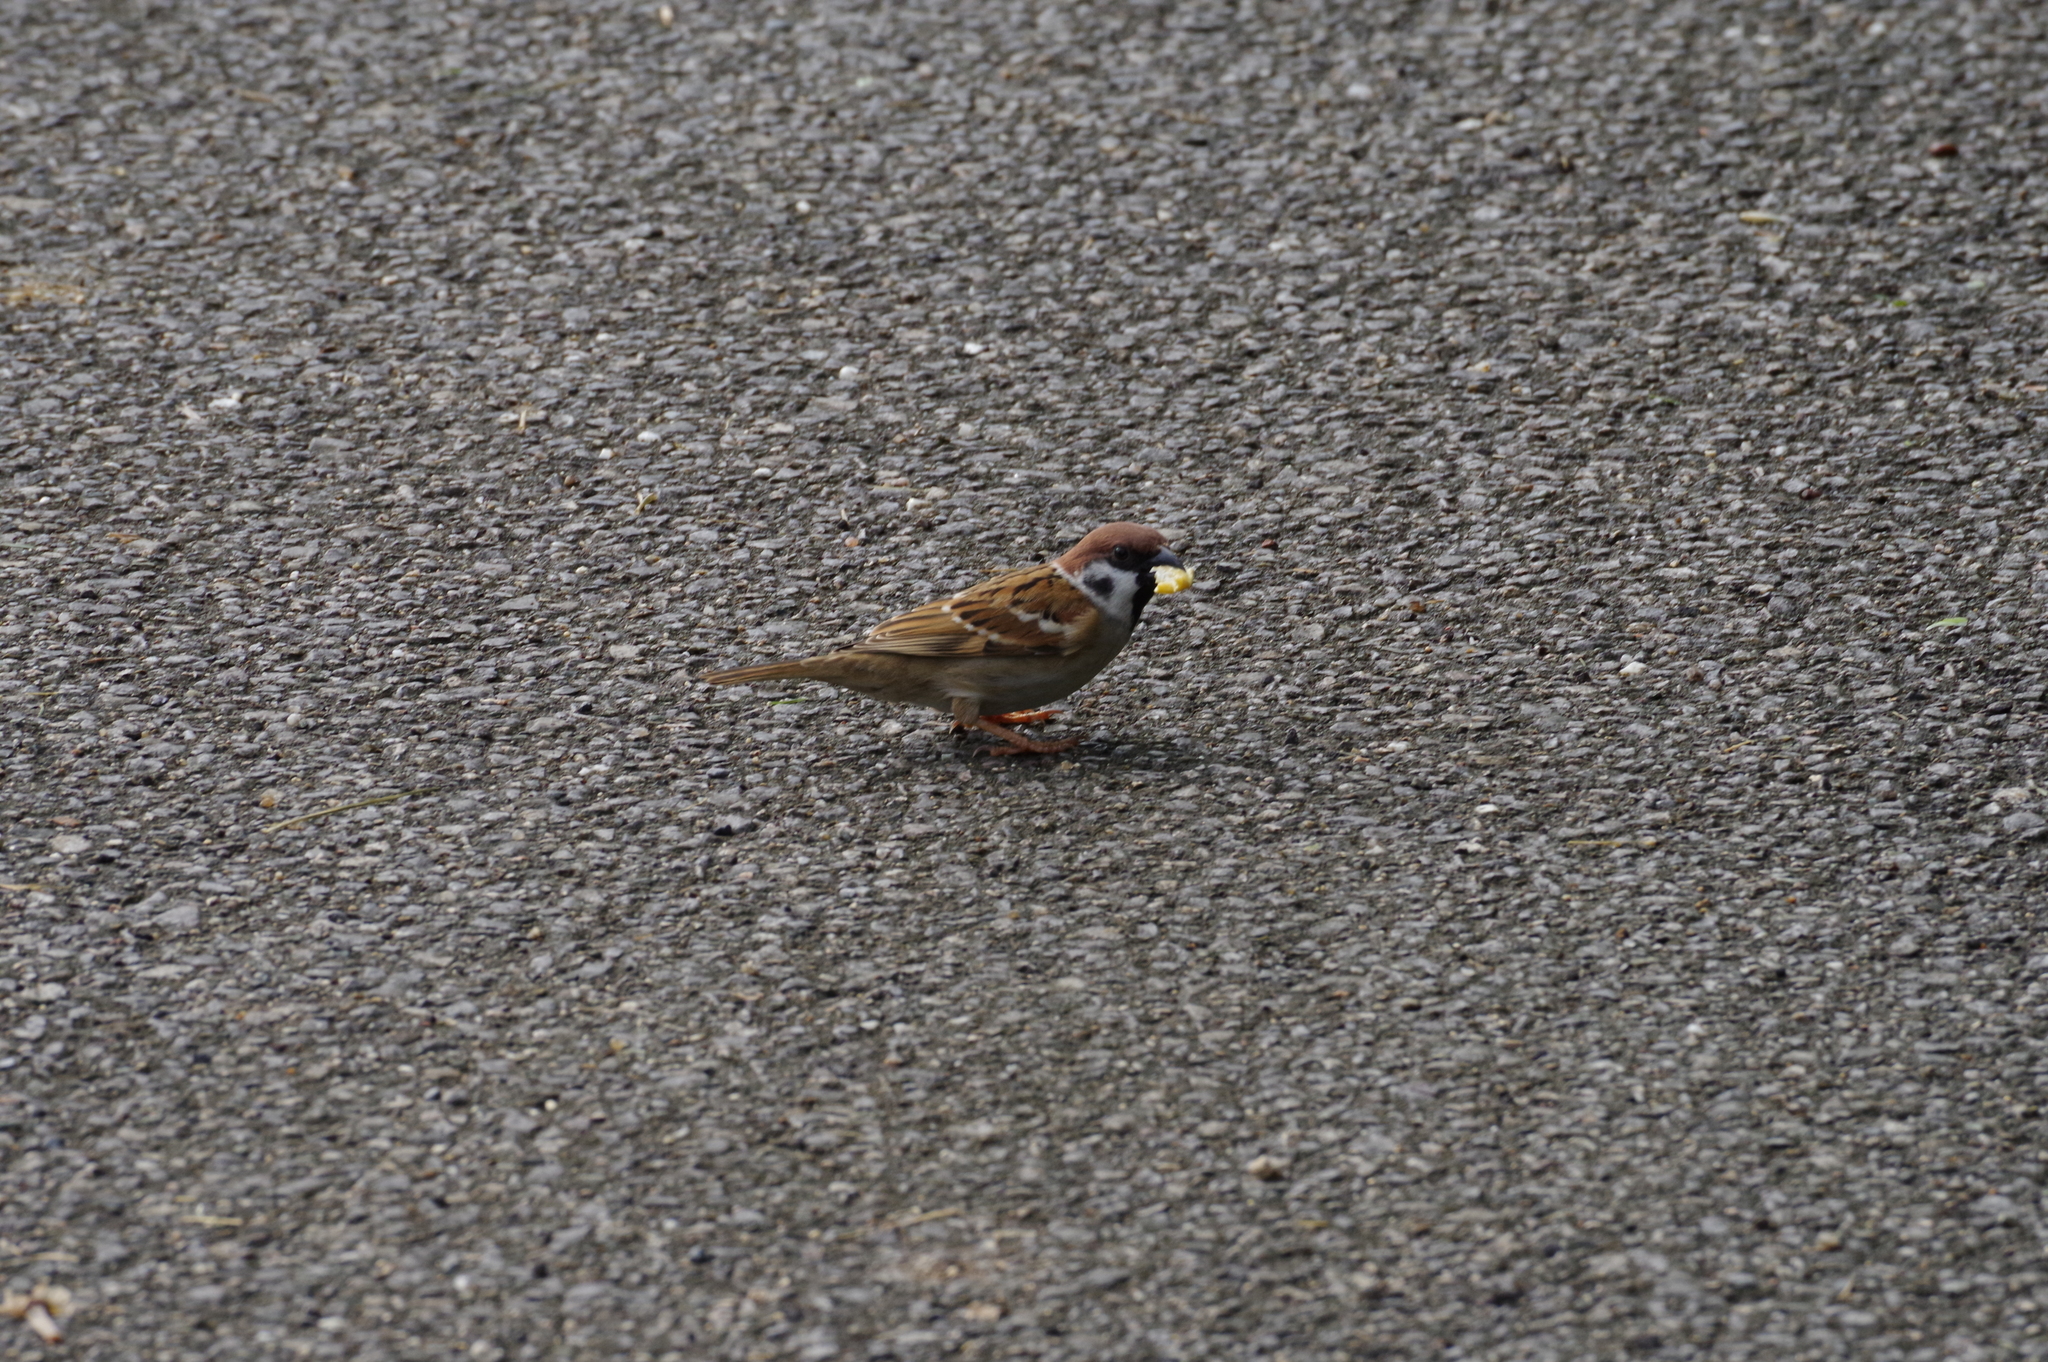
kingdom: Animalia
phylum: Chordata
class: Aves
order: Passeriformes
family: Passeridae
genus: Passer
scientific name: Passer montanus
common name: Eurasian tree sparrow
